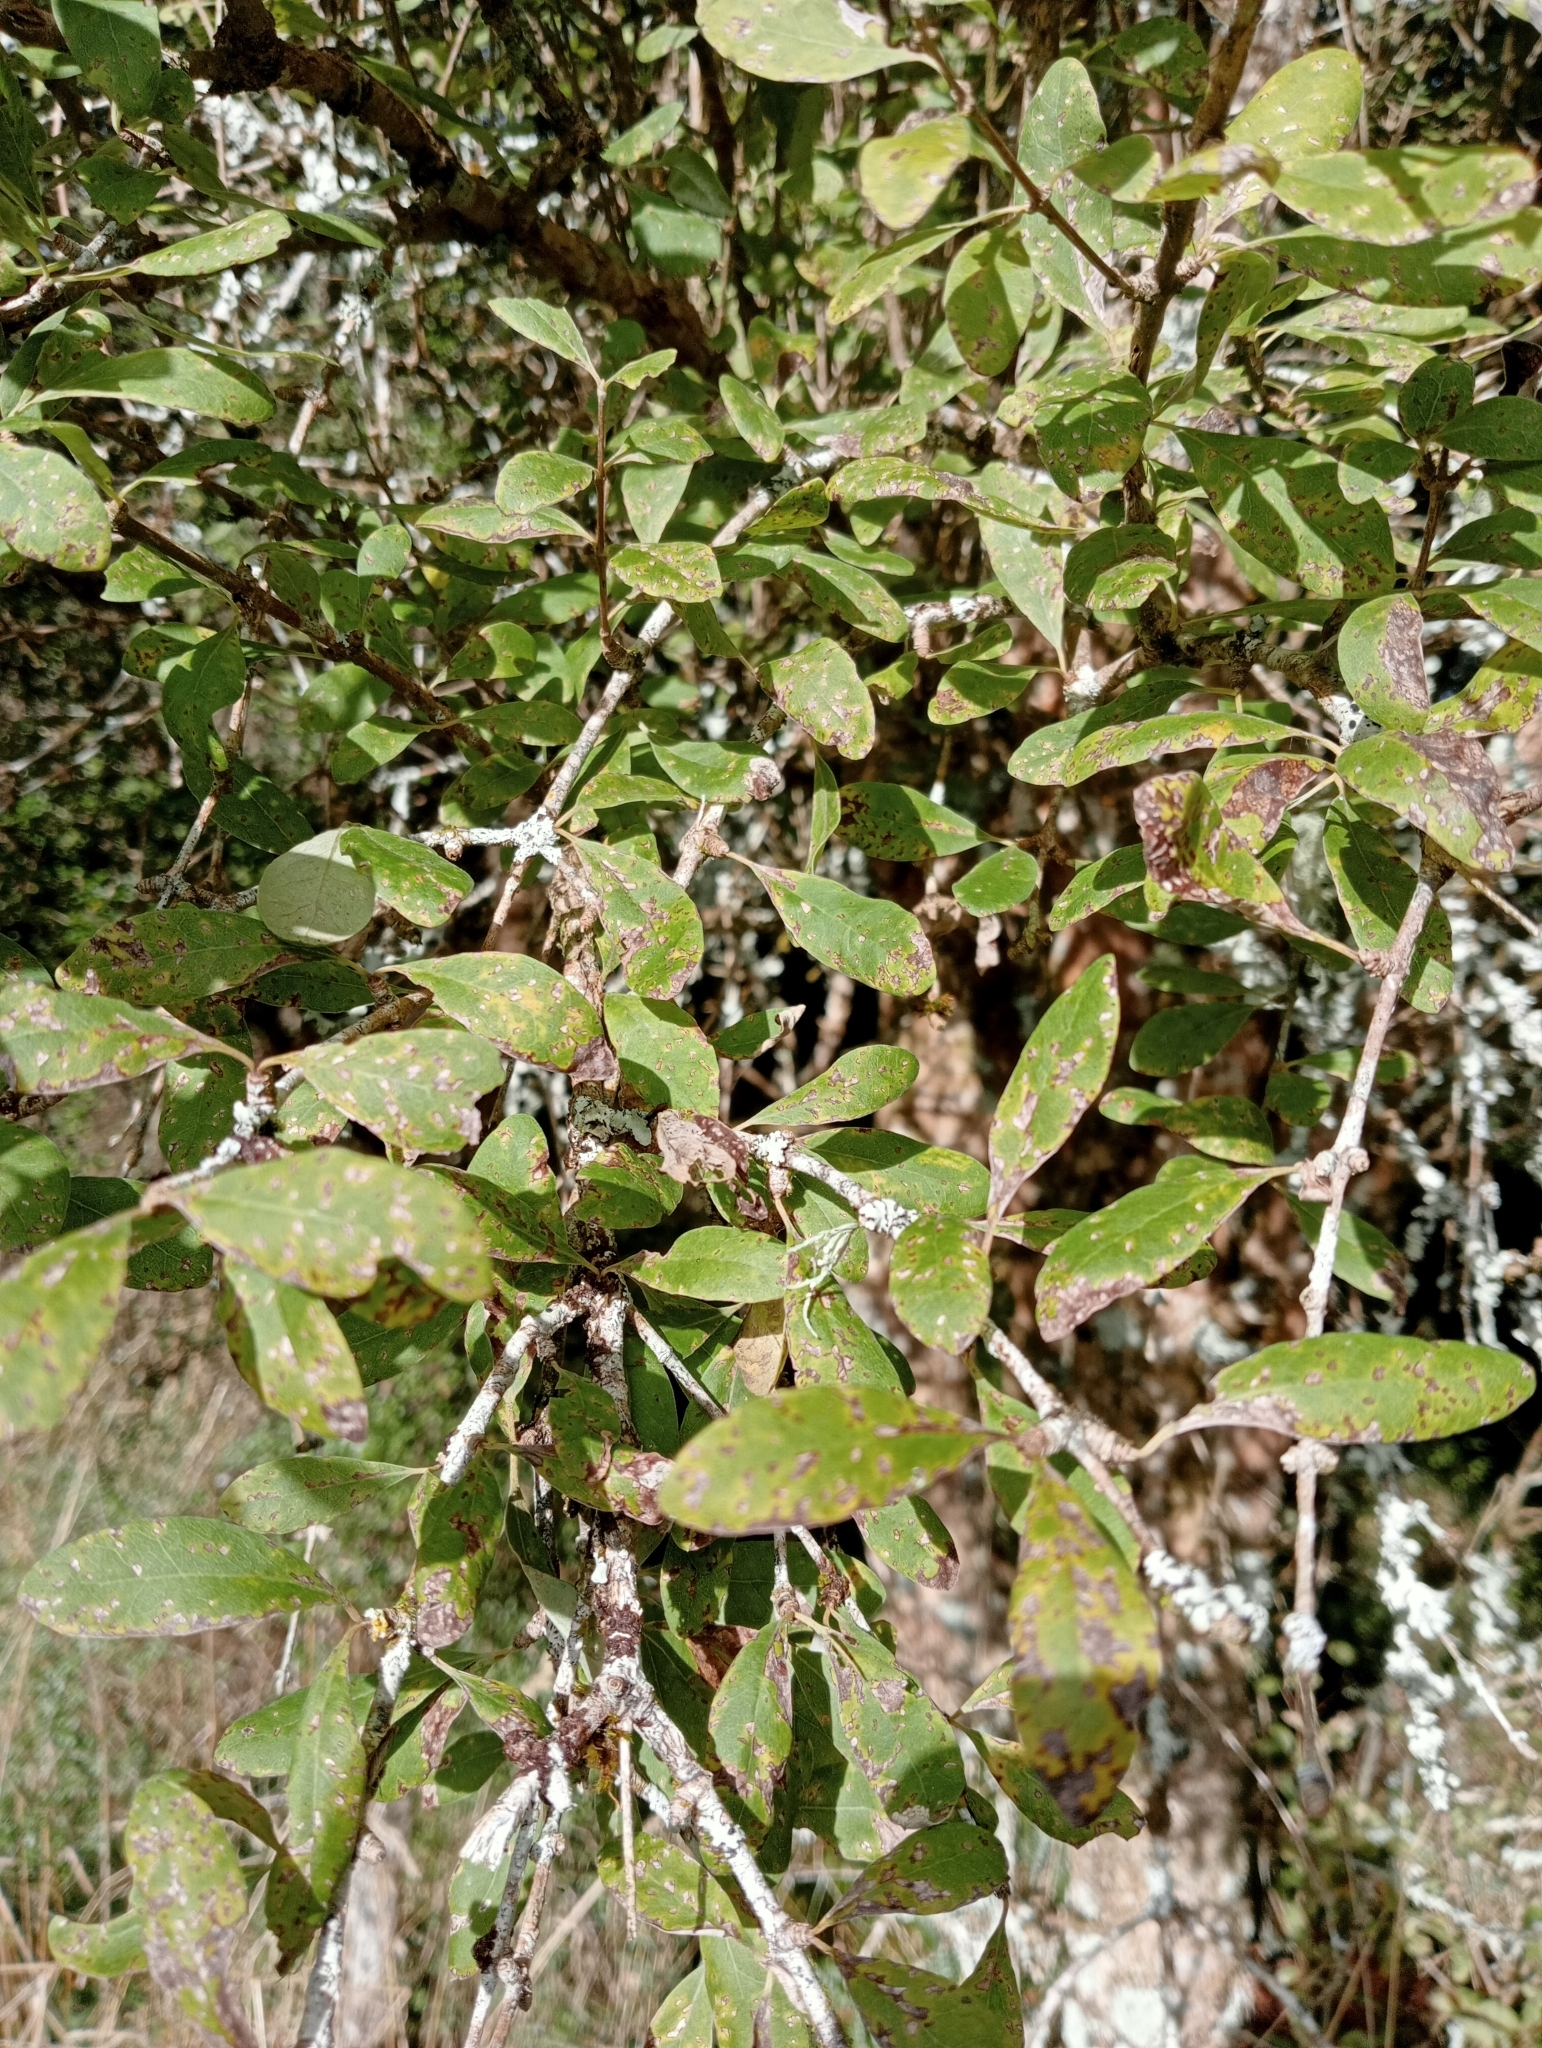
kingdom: Plantae
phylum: Tracheophyta
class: Magnoliopsida
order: Asterales
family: Asteraceae
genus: Olearia
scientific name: Olearia hectorii
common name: Deciduous tree daisy
